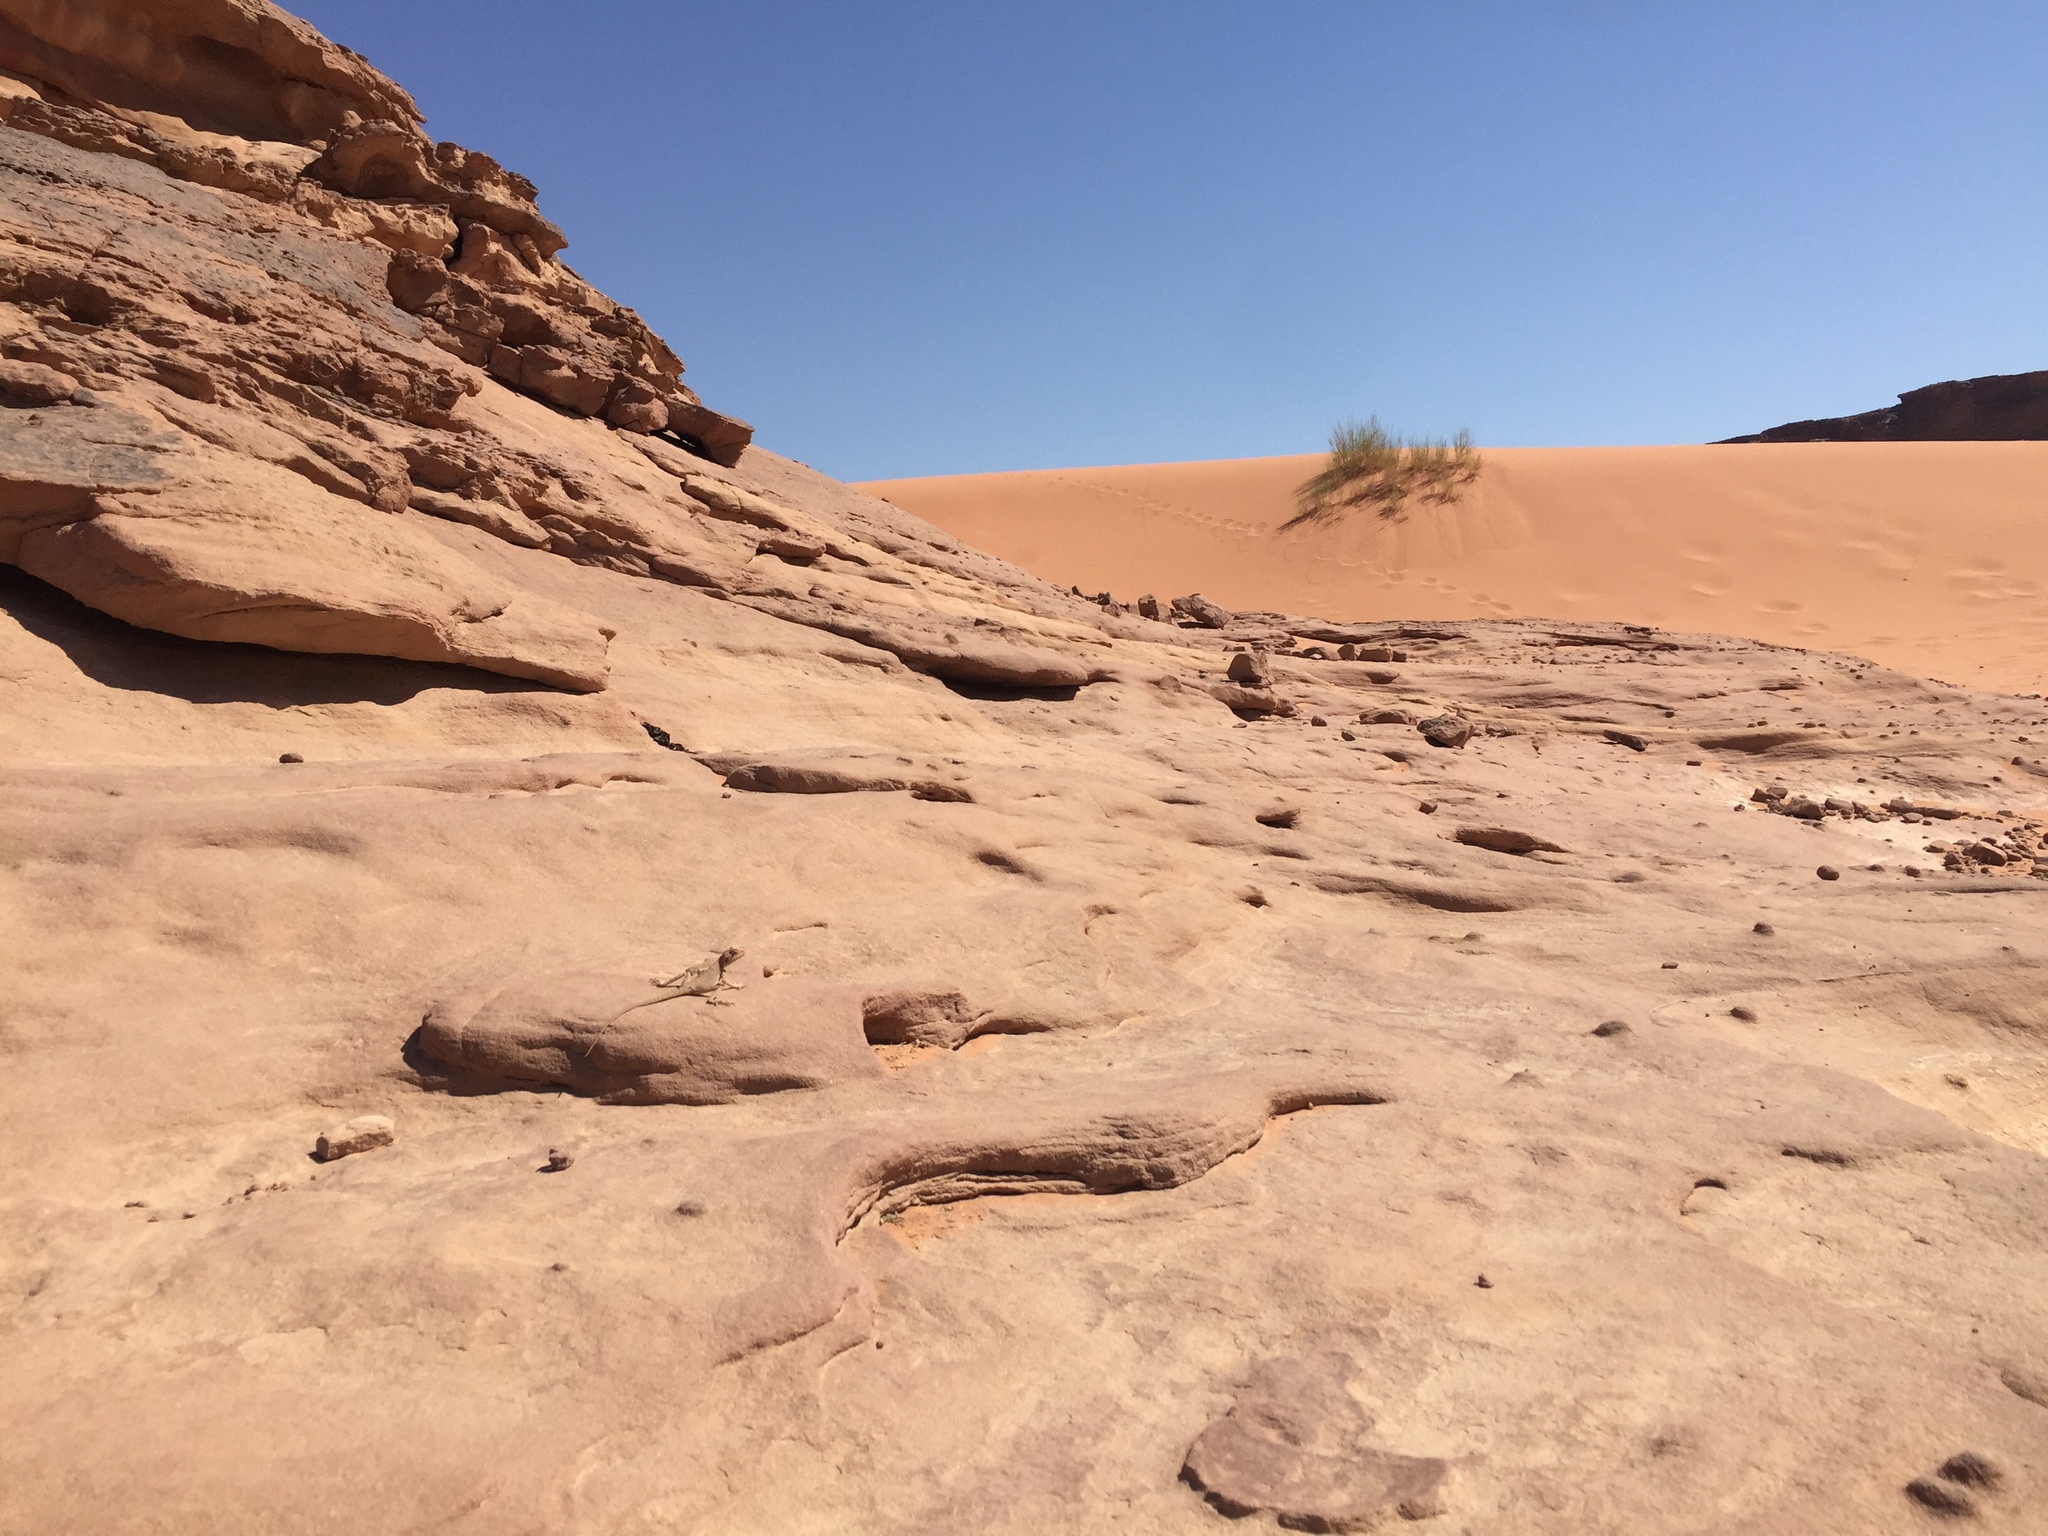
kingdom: Animalia
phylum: Chordata
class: Squamata
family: Agamidae
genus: Pseudotrapelus
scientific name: Pseudotrapelus sinaitus
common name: Sinai agama
